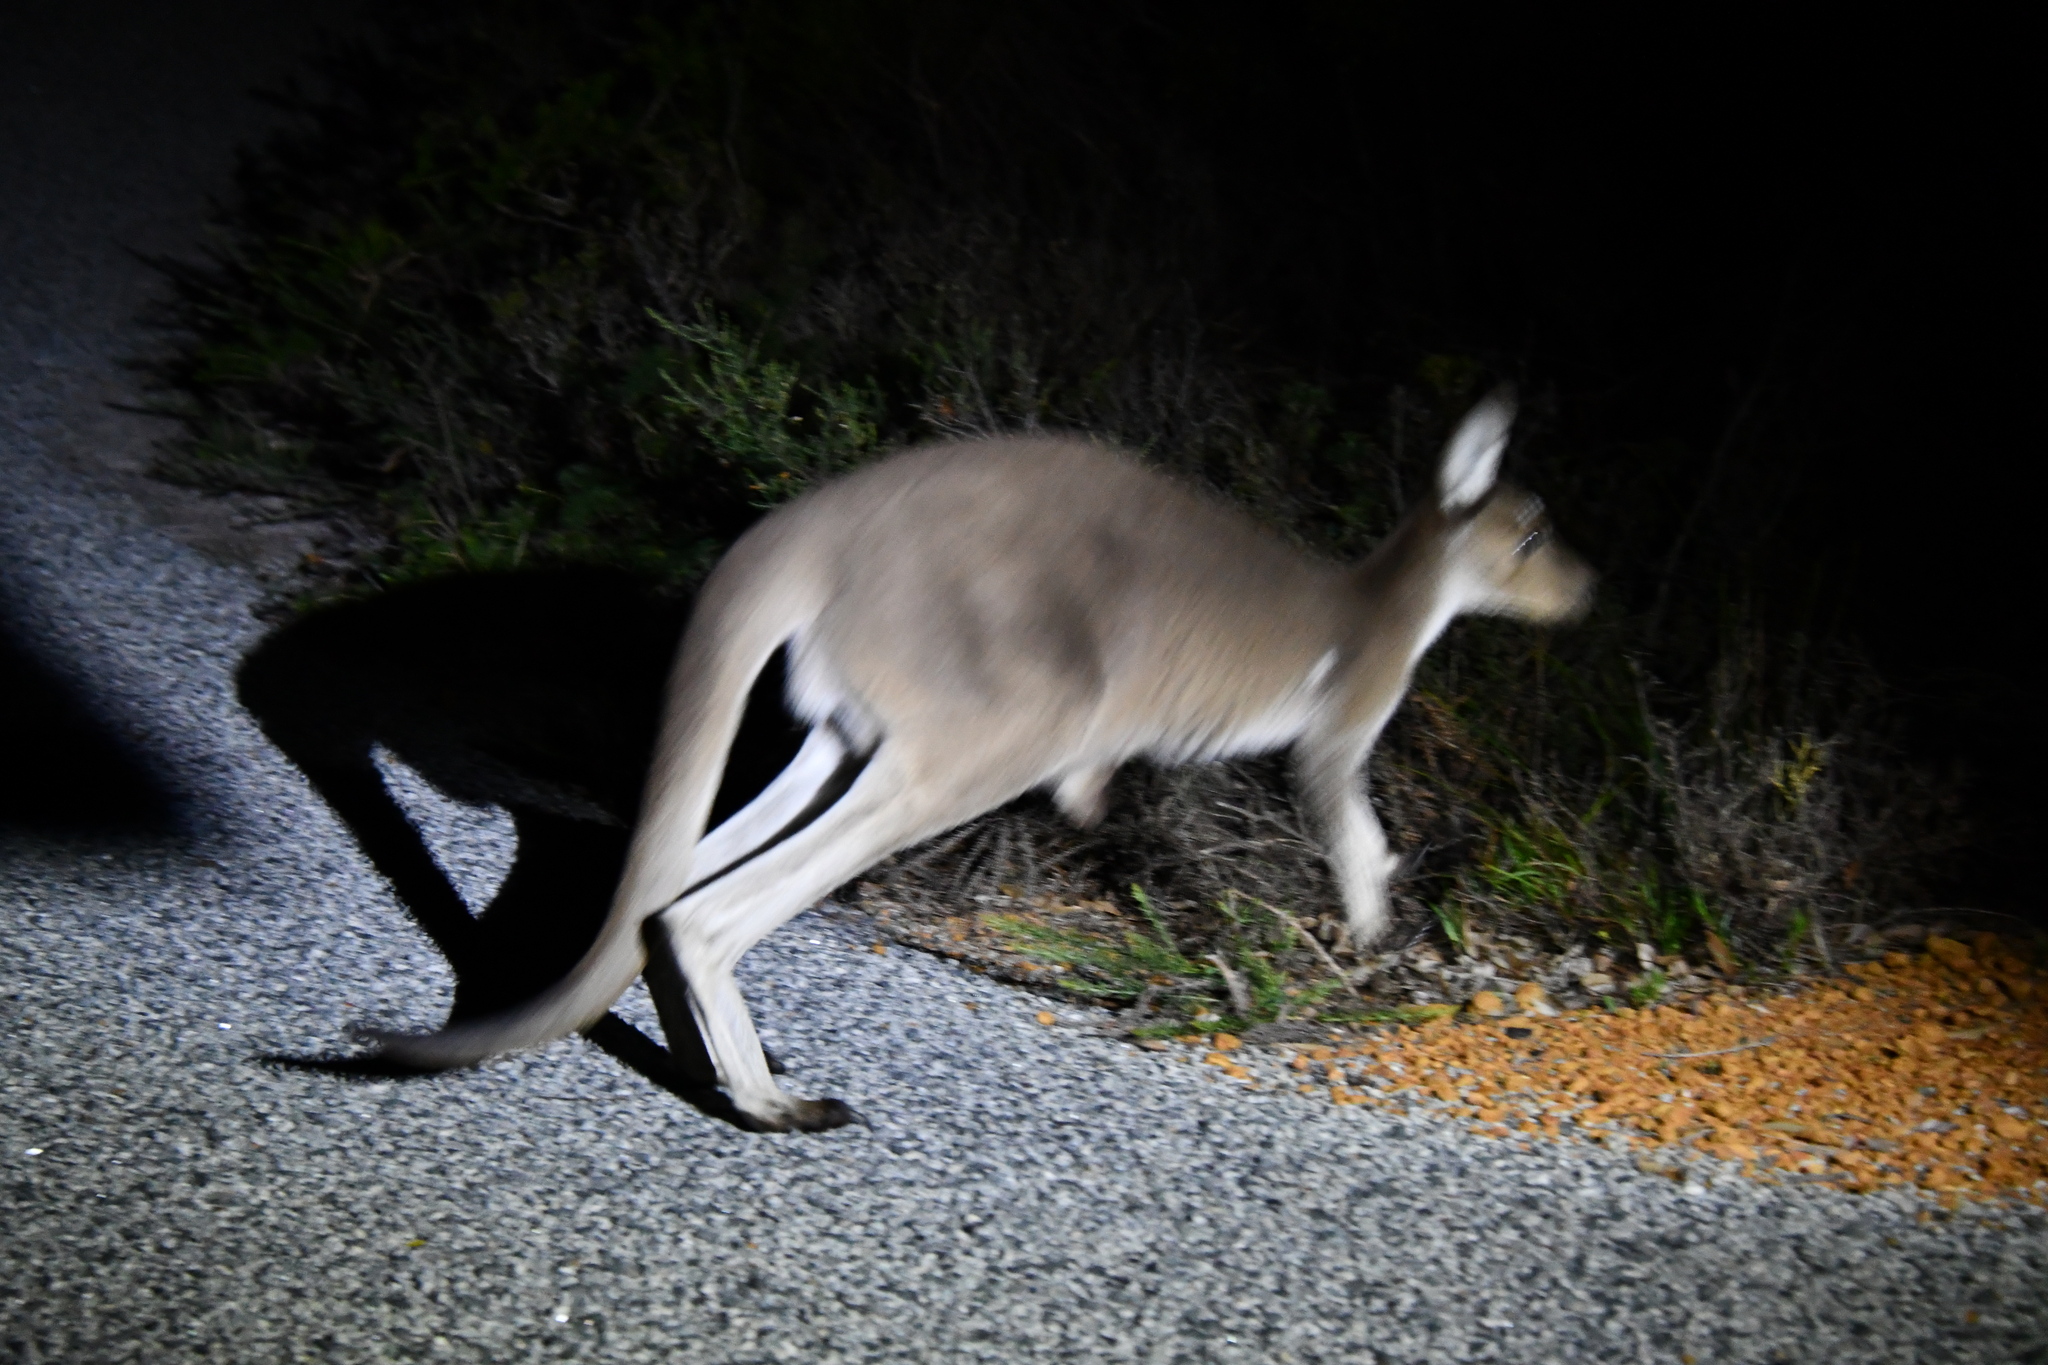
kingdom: Animalia
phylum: Chordata
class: Mammalia
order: Diprotodontia
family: Macropodidae
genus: Macropus
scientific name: Macropus fuliginosus
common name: Western grey kangaroo
